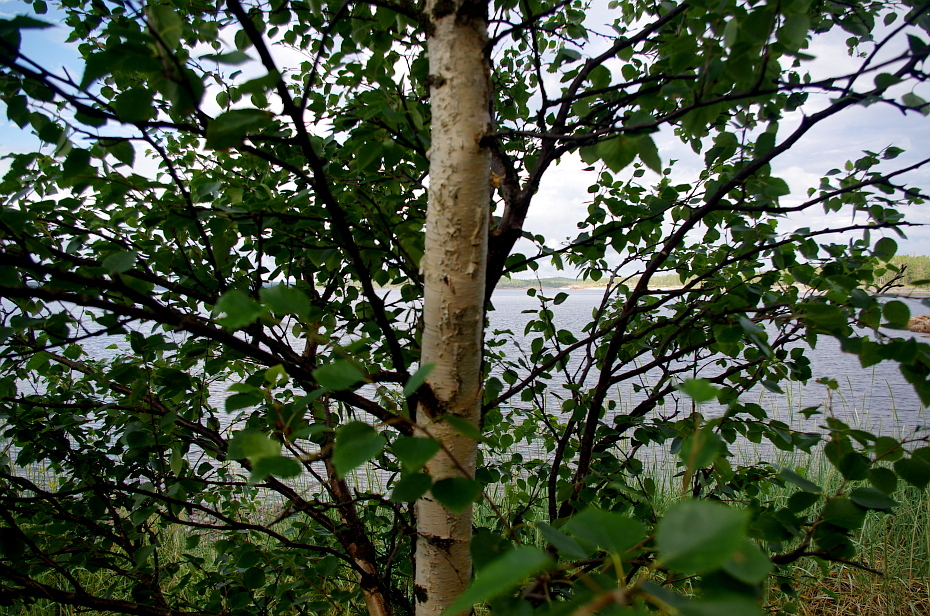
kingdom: Plantae
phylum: Tracheophyta
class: Magnoliopsida
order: Fagales
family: Betulaceae
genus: Betula
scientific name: Betula pubescens
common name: Downy birch
